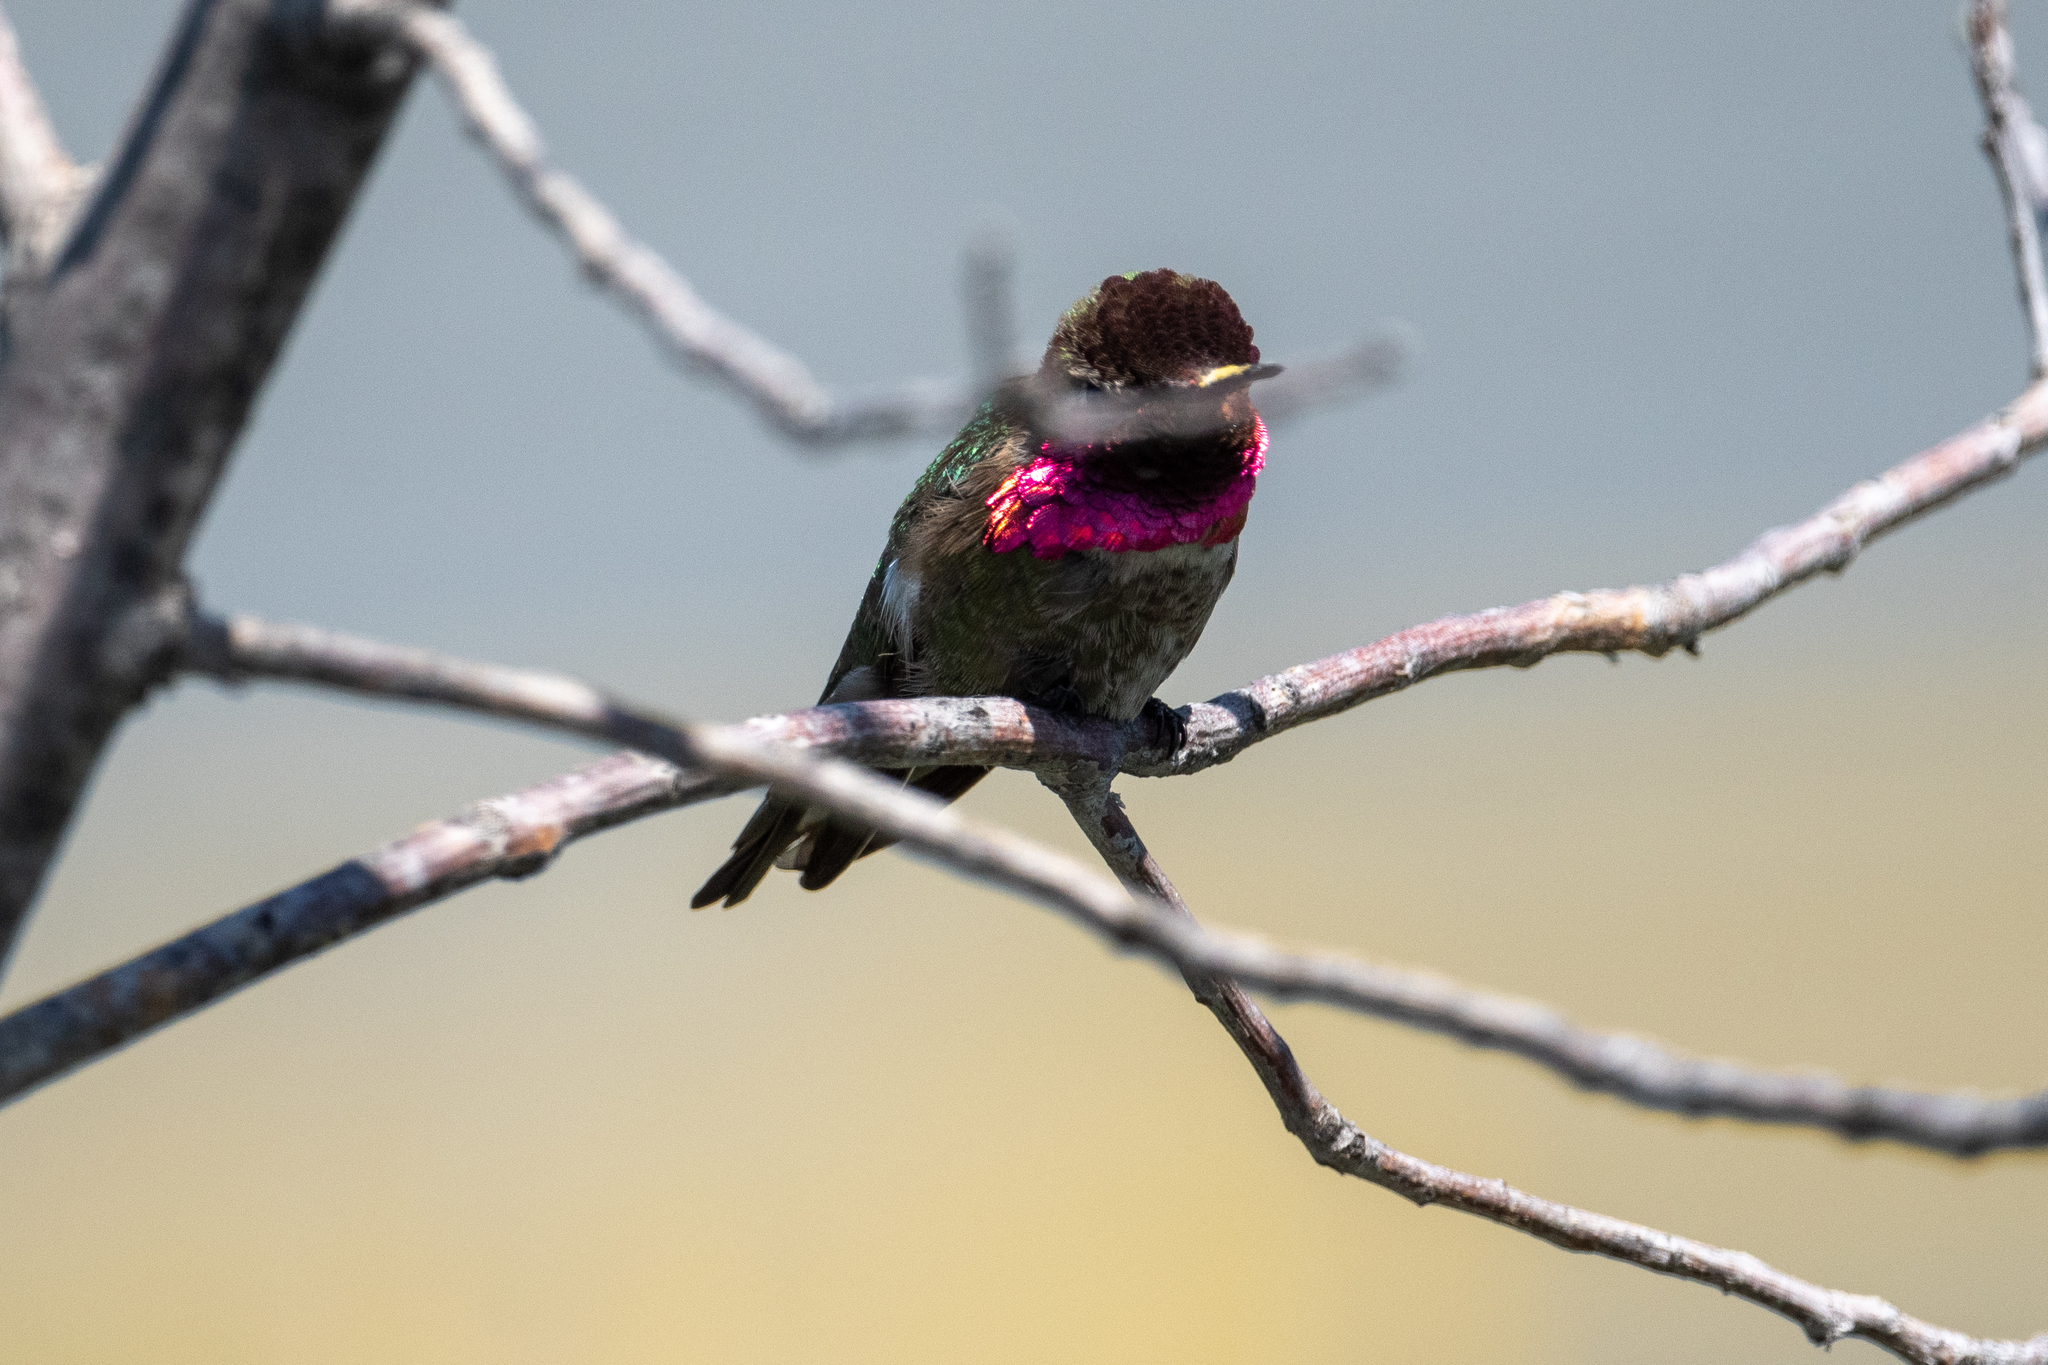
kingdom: Animalia
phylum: Chordata
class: Aves
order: Apodiformes
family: Trochilidae
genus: Calypte
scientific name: Calypte anna
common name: Anna's hummingbird
